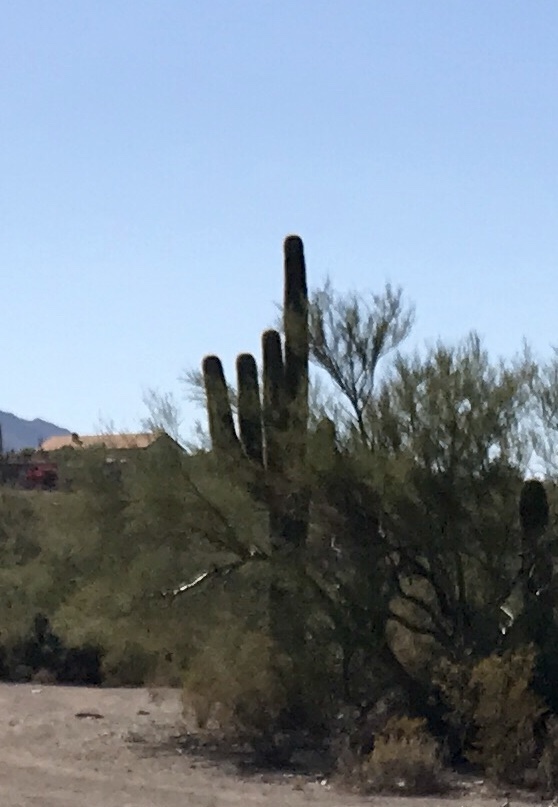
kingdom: Plantae
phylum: Tracheophyta
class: Magnoliopsida
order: Caryophyllales
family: Cactaceae
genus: Carnegiea
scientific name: Carnegiea gigantea
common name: Saguaro
